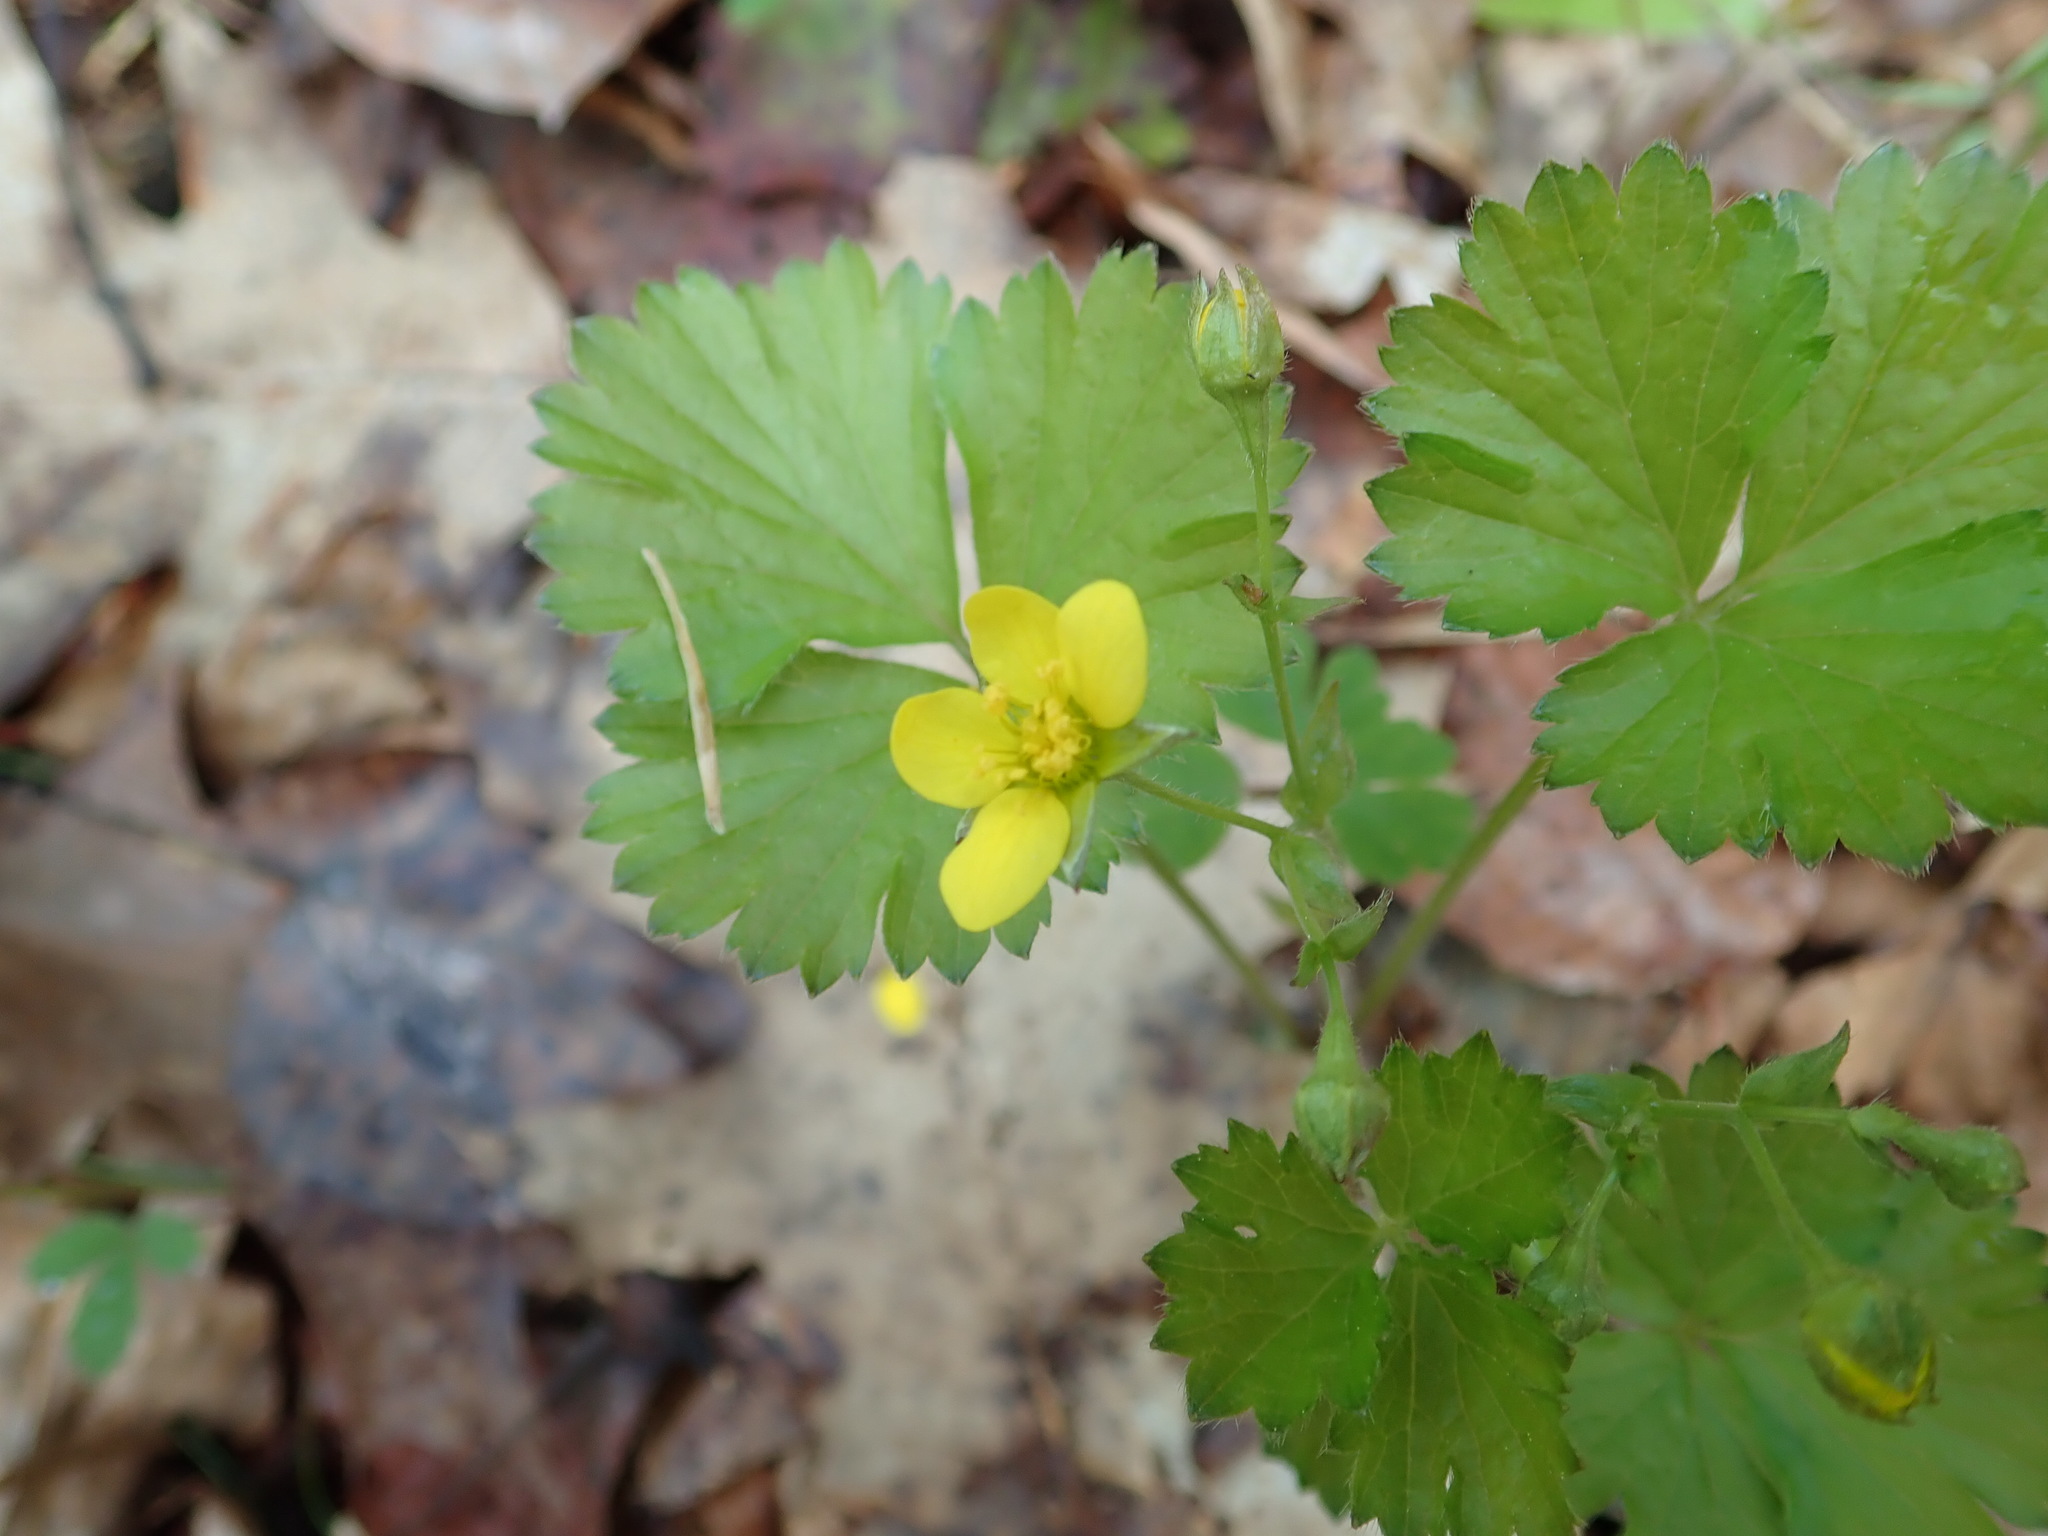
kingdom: Plantae
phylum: Tracheophyta
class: Magnoliopsida
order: Rosales
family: Rosaceae
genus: Geum
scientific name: Geum fragarioides
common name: Appalachian barren strawberry
